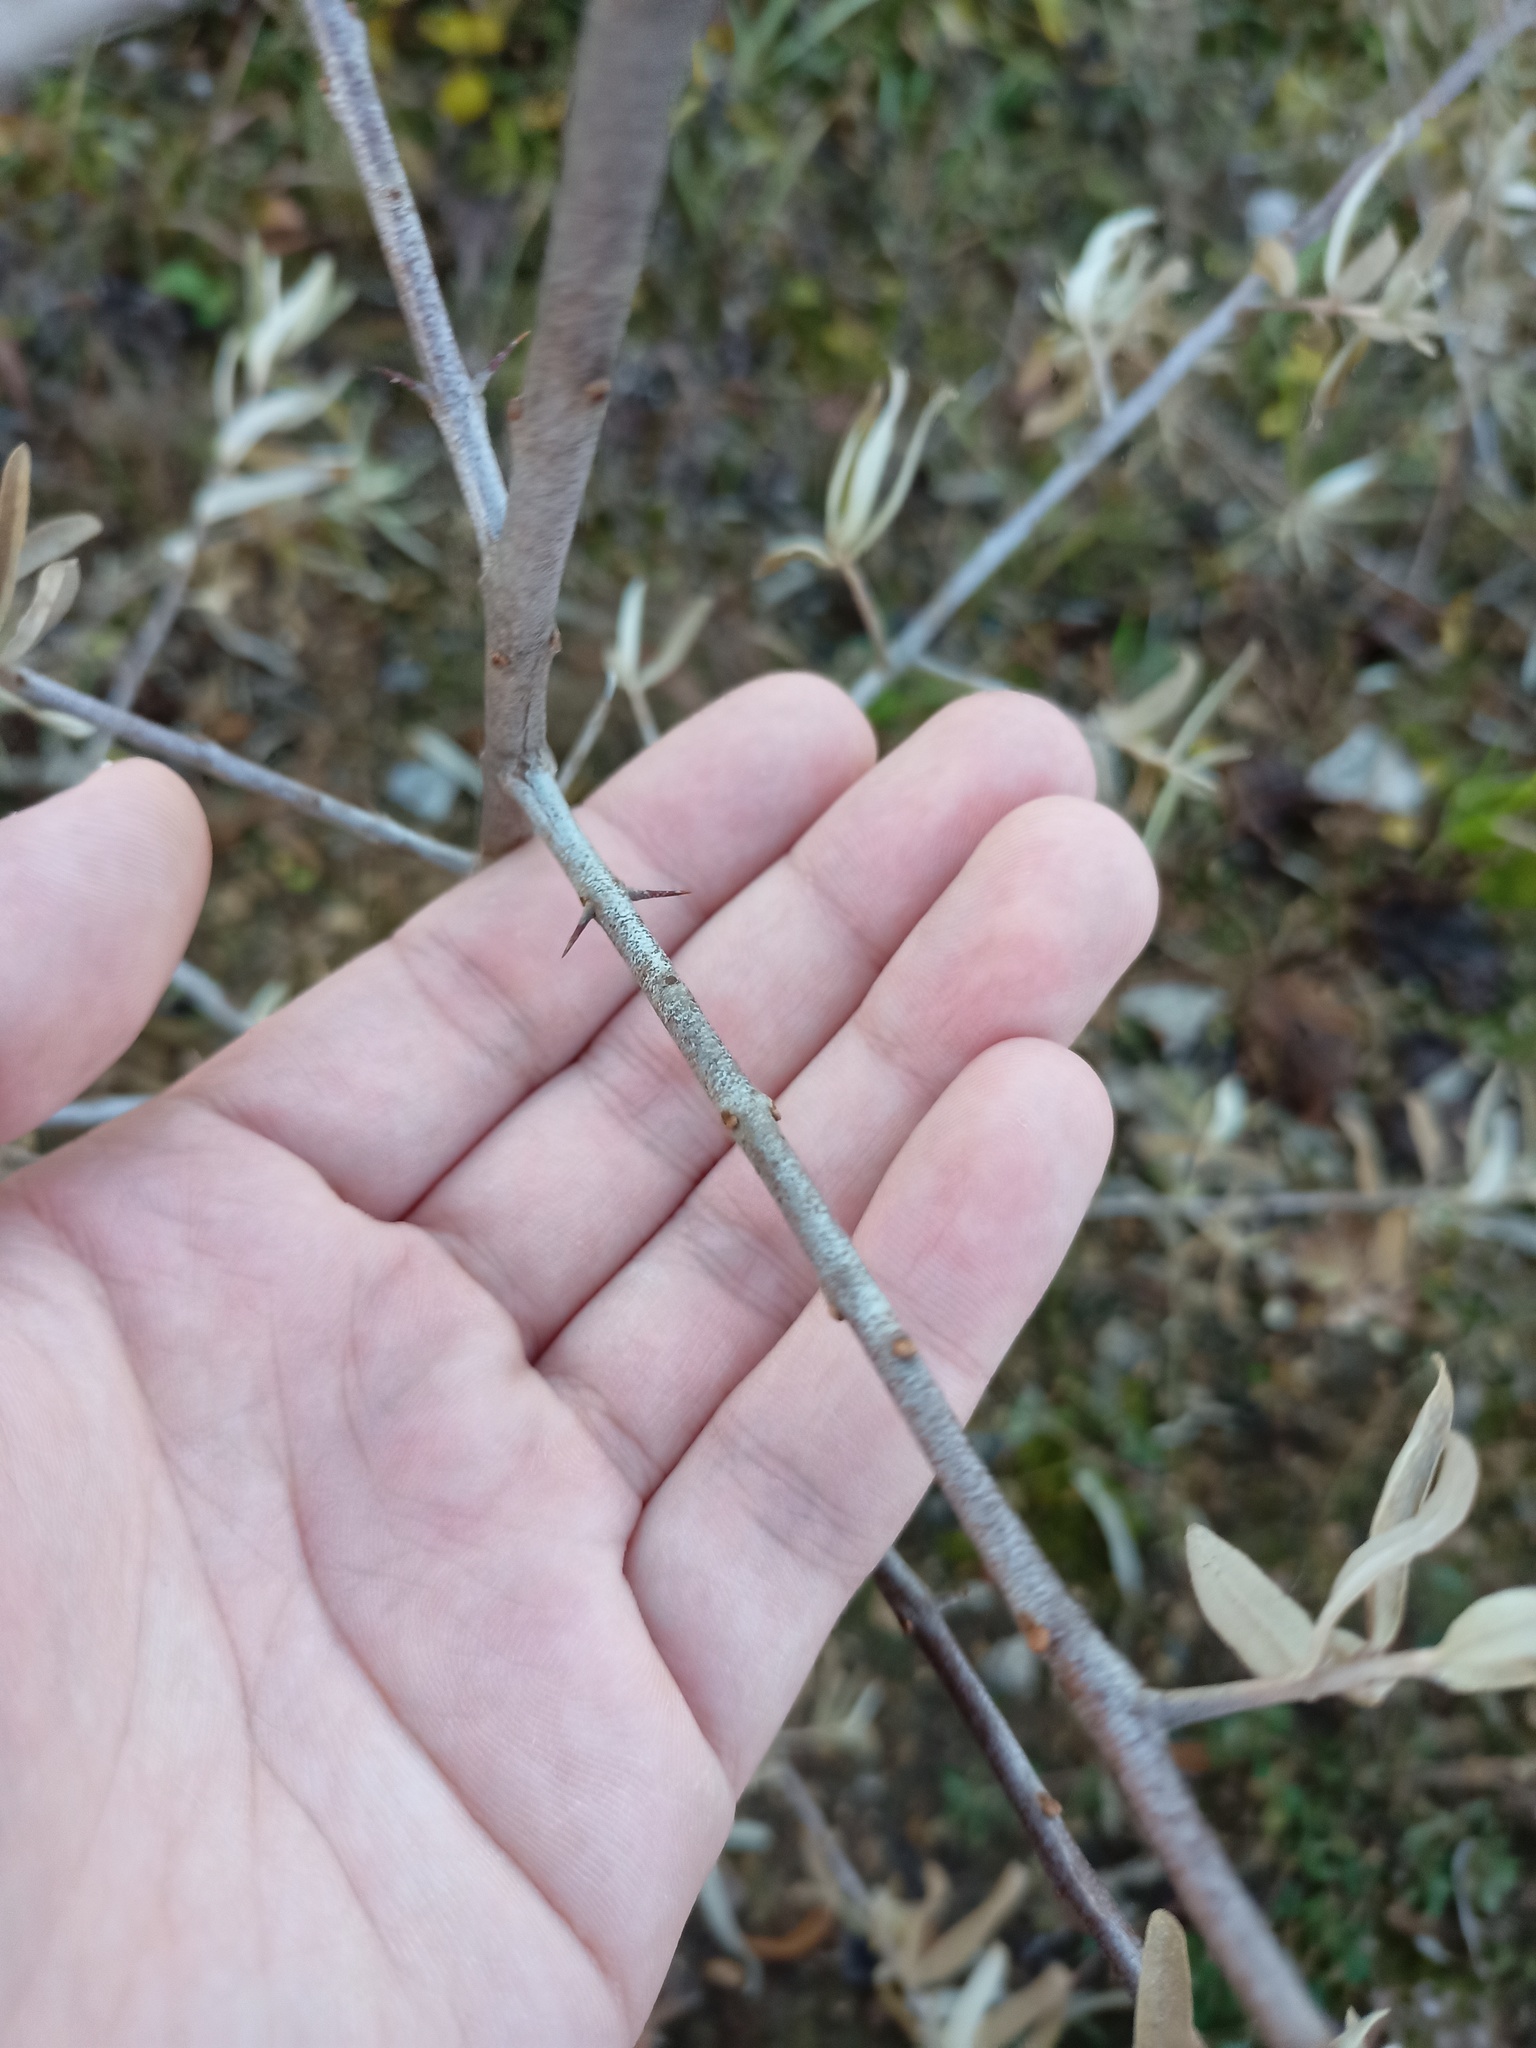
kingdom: Plantae
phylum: Tracheophyta
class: Magnoliopsida
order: Rosales
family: Elaeagnaceae
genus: Hippophae
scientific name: Hippophae rhamnoides
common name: Sea-buckthorn
